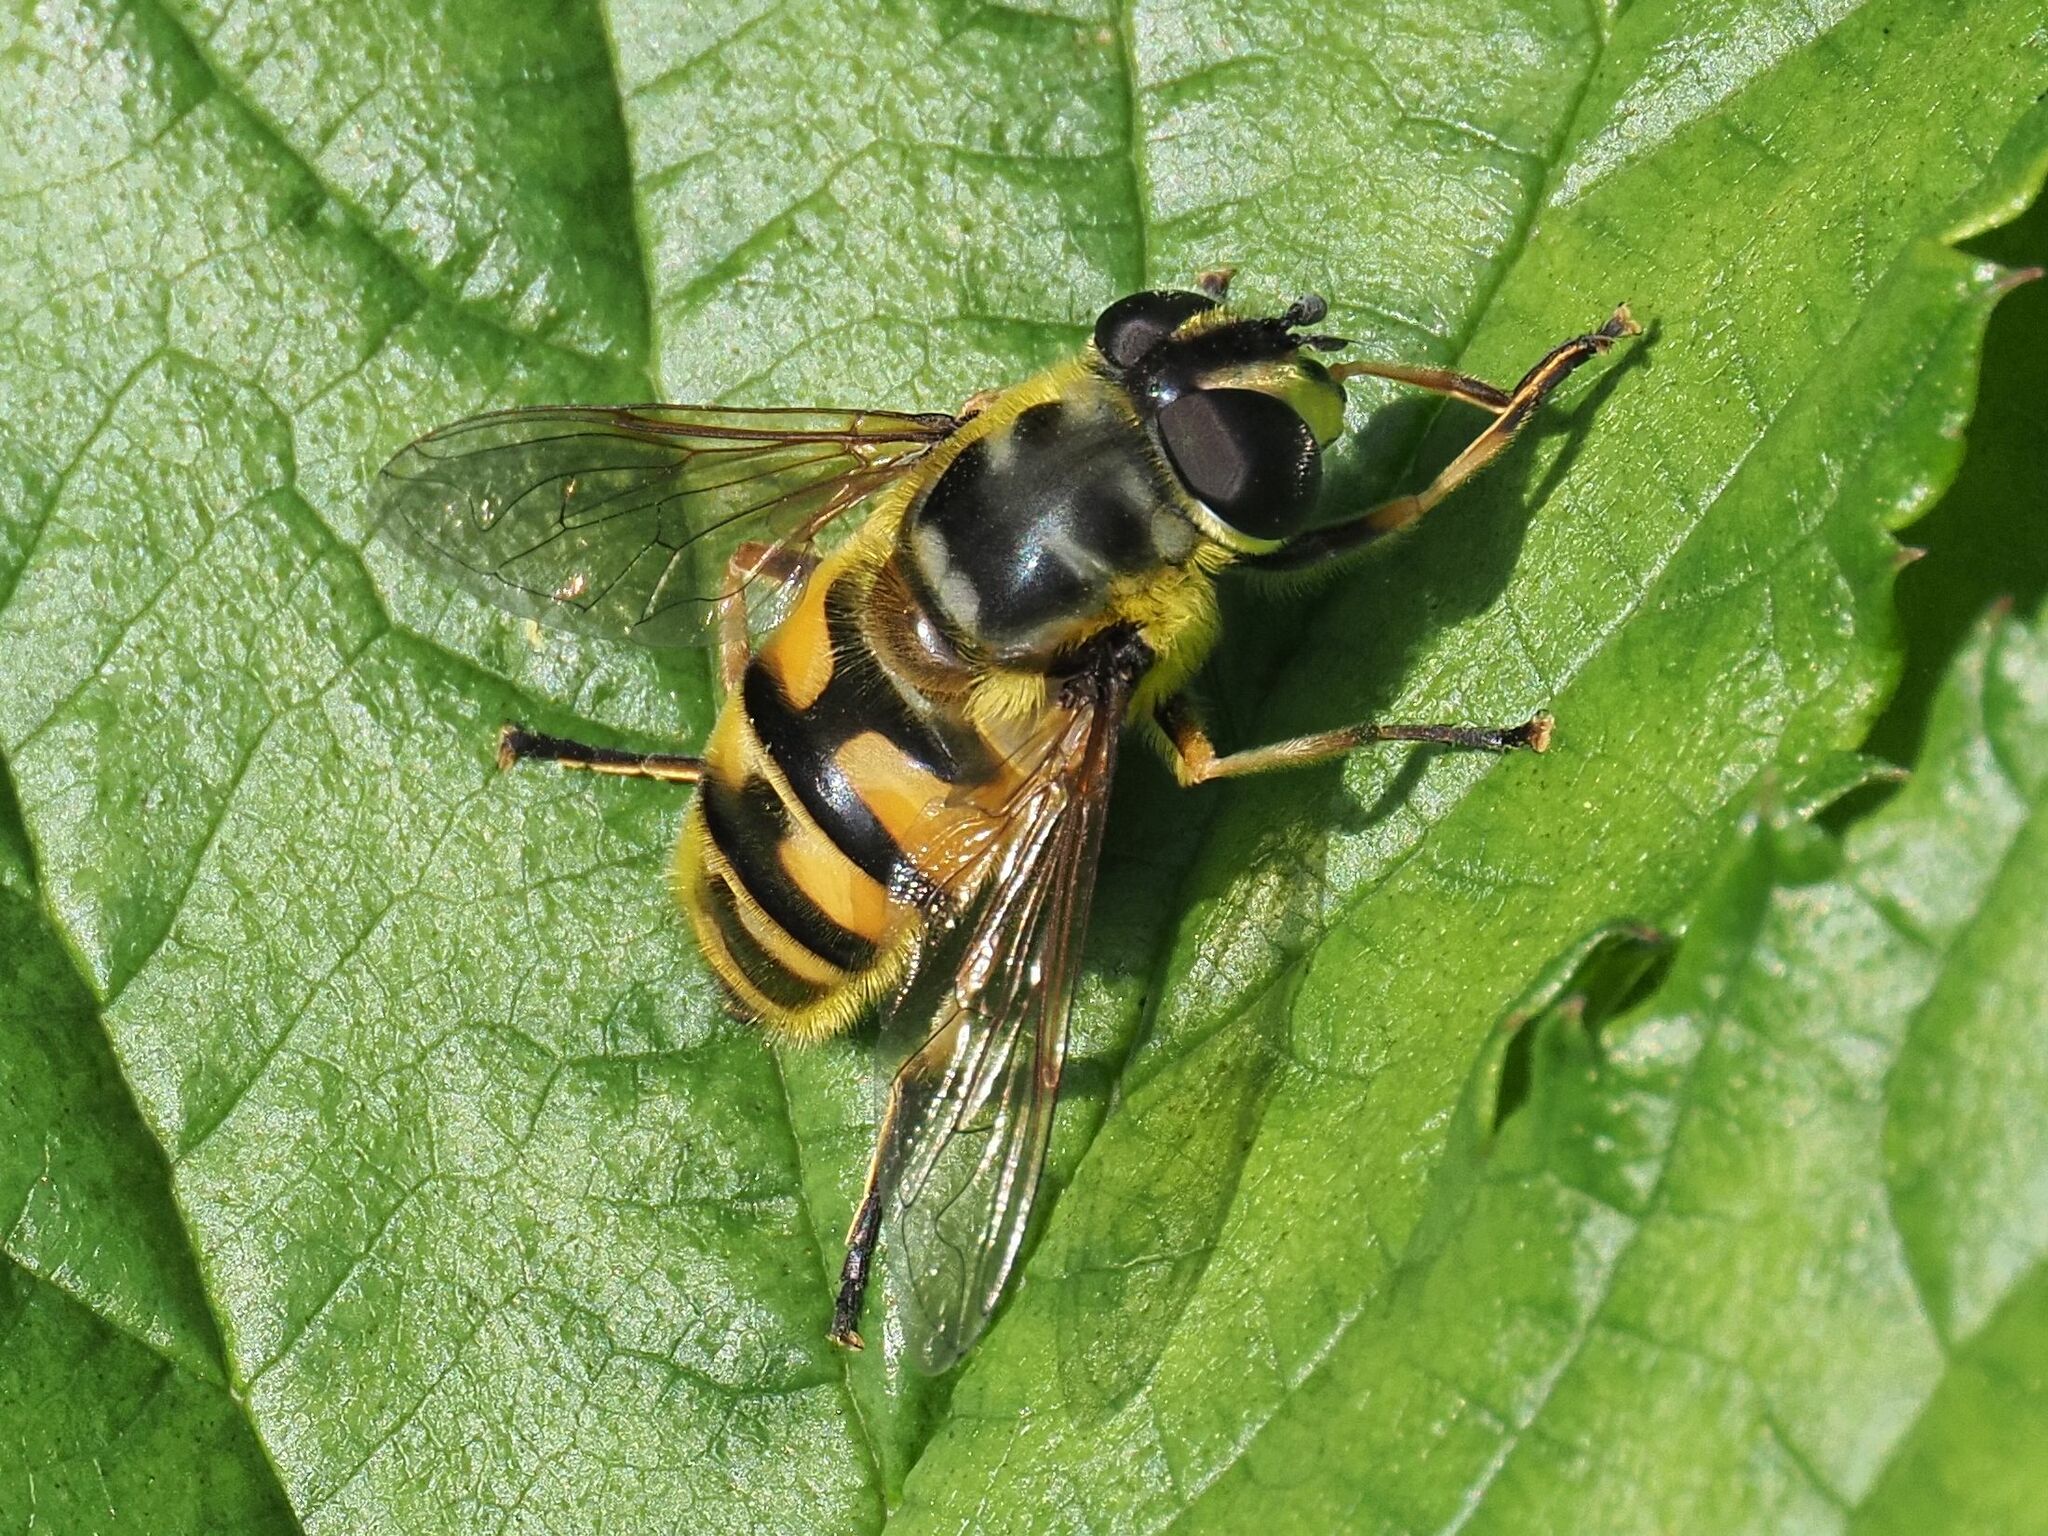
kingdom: Animalia
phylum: Arthropoda
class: Insecta
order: Diptera
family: Syrphidae
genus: Myathropa
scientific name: Myathropa florea
